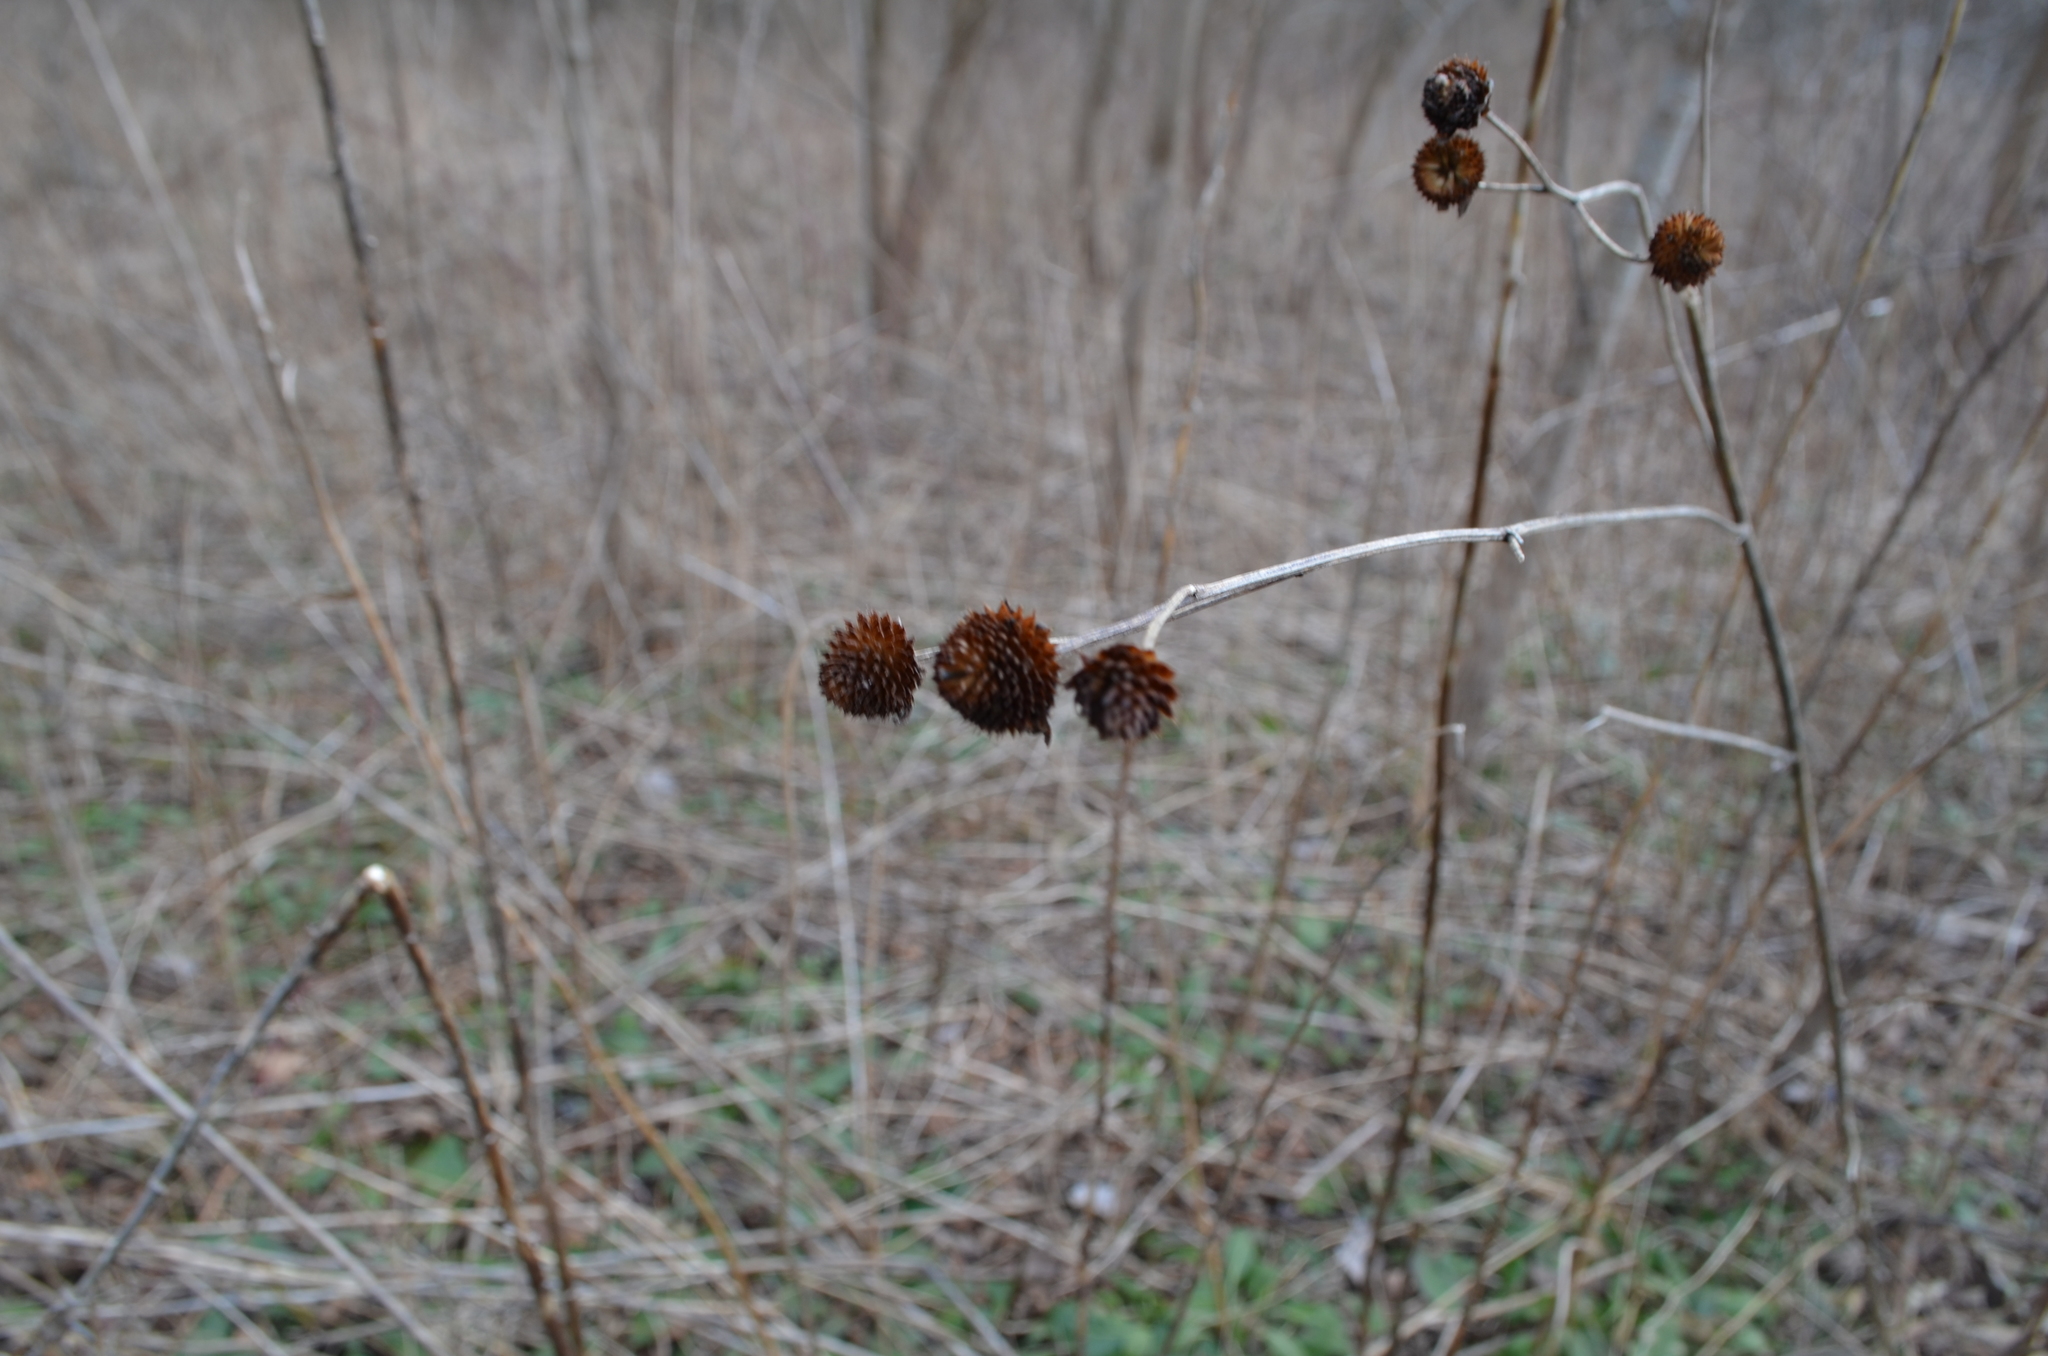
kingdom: Plantae
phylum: Tracheophyta
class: Magnoliopsida
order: Asterales
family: Asteraceae
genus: Rudbeckia
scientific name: Rudbeckia triloba
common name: Thin-leaved coneflower
